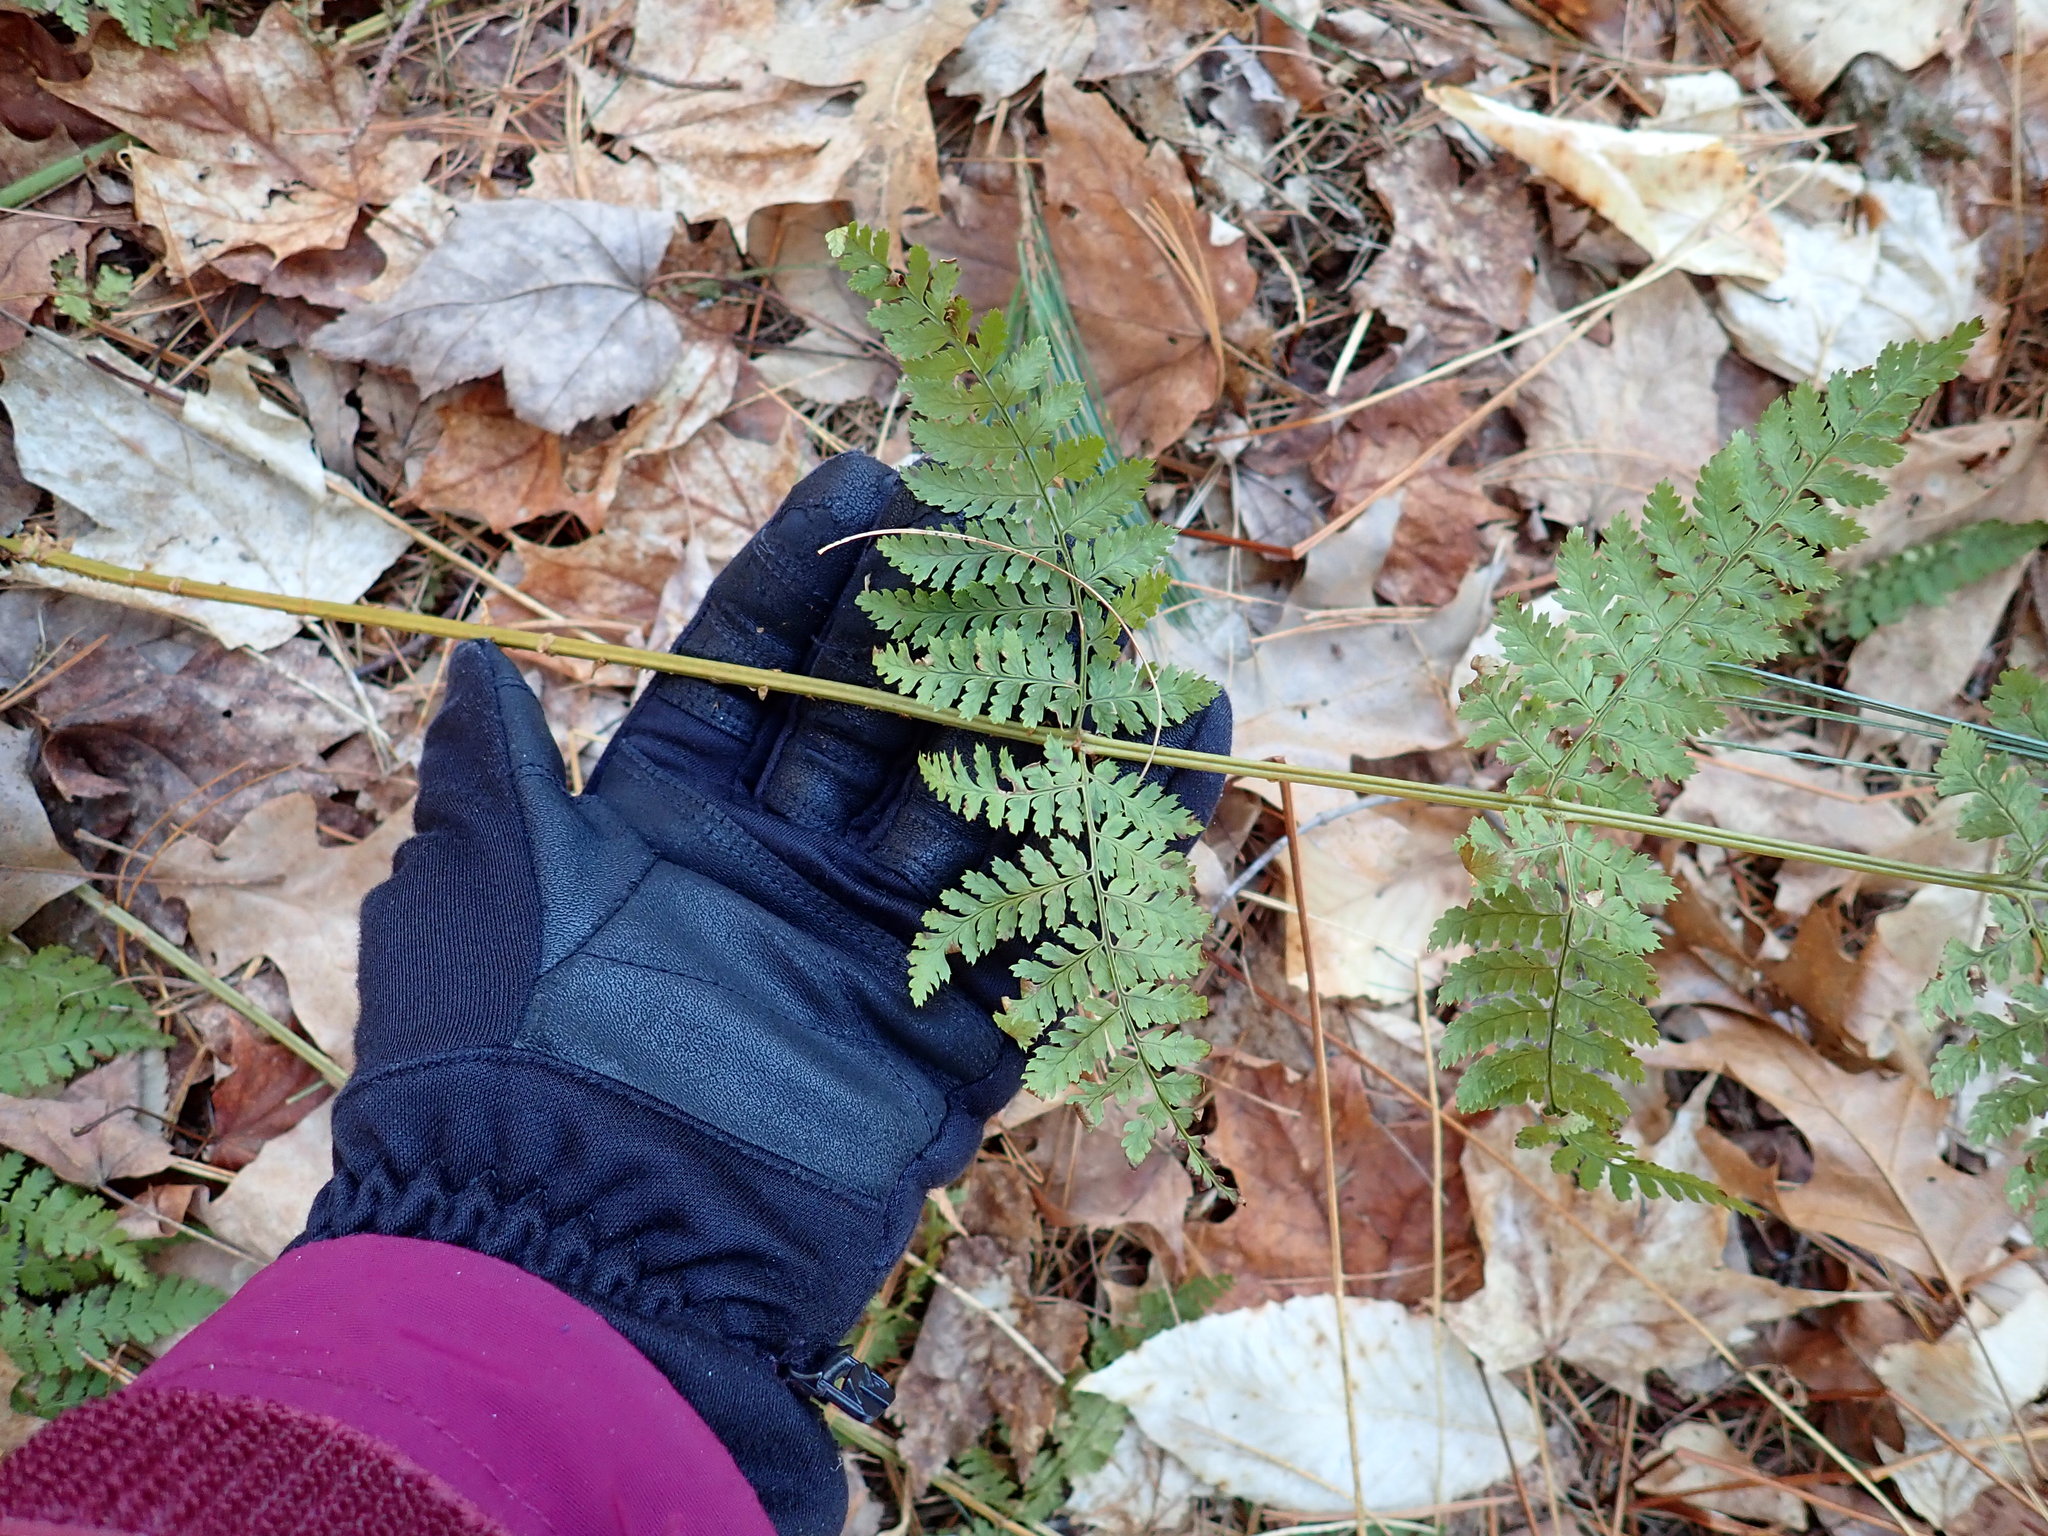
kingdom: Plantae
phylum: Tracheophyta
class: Polypodiopsida
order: Polypodiales
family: Dryopteridaceae
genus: Dryopteris
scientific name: Dryopteris intermedia
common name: Evergreen wood fern
